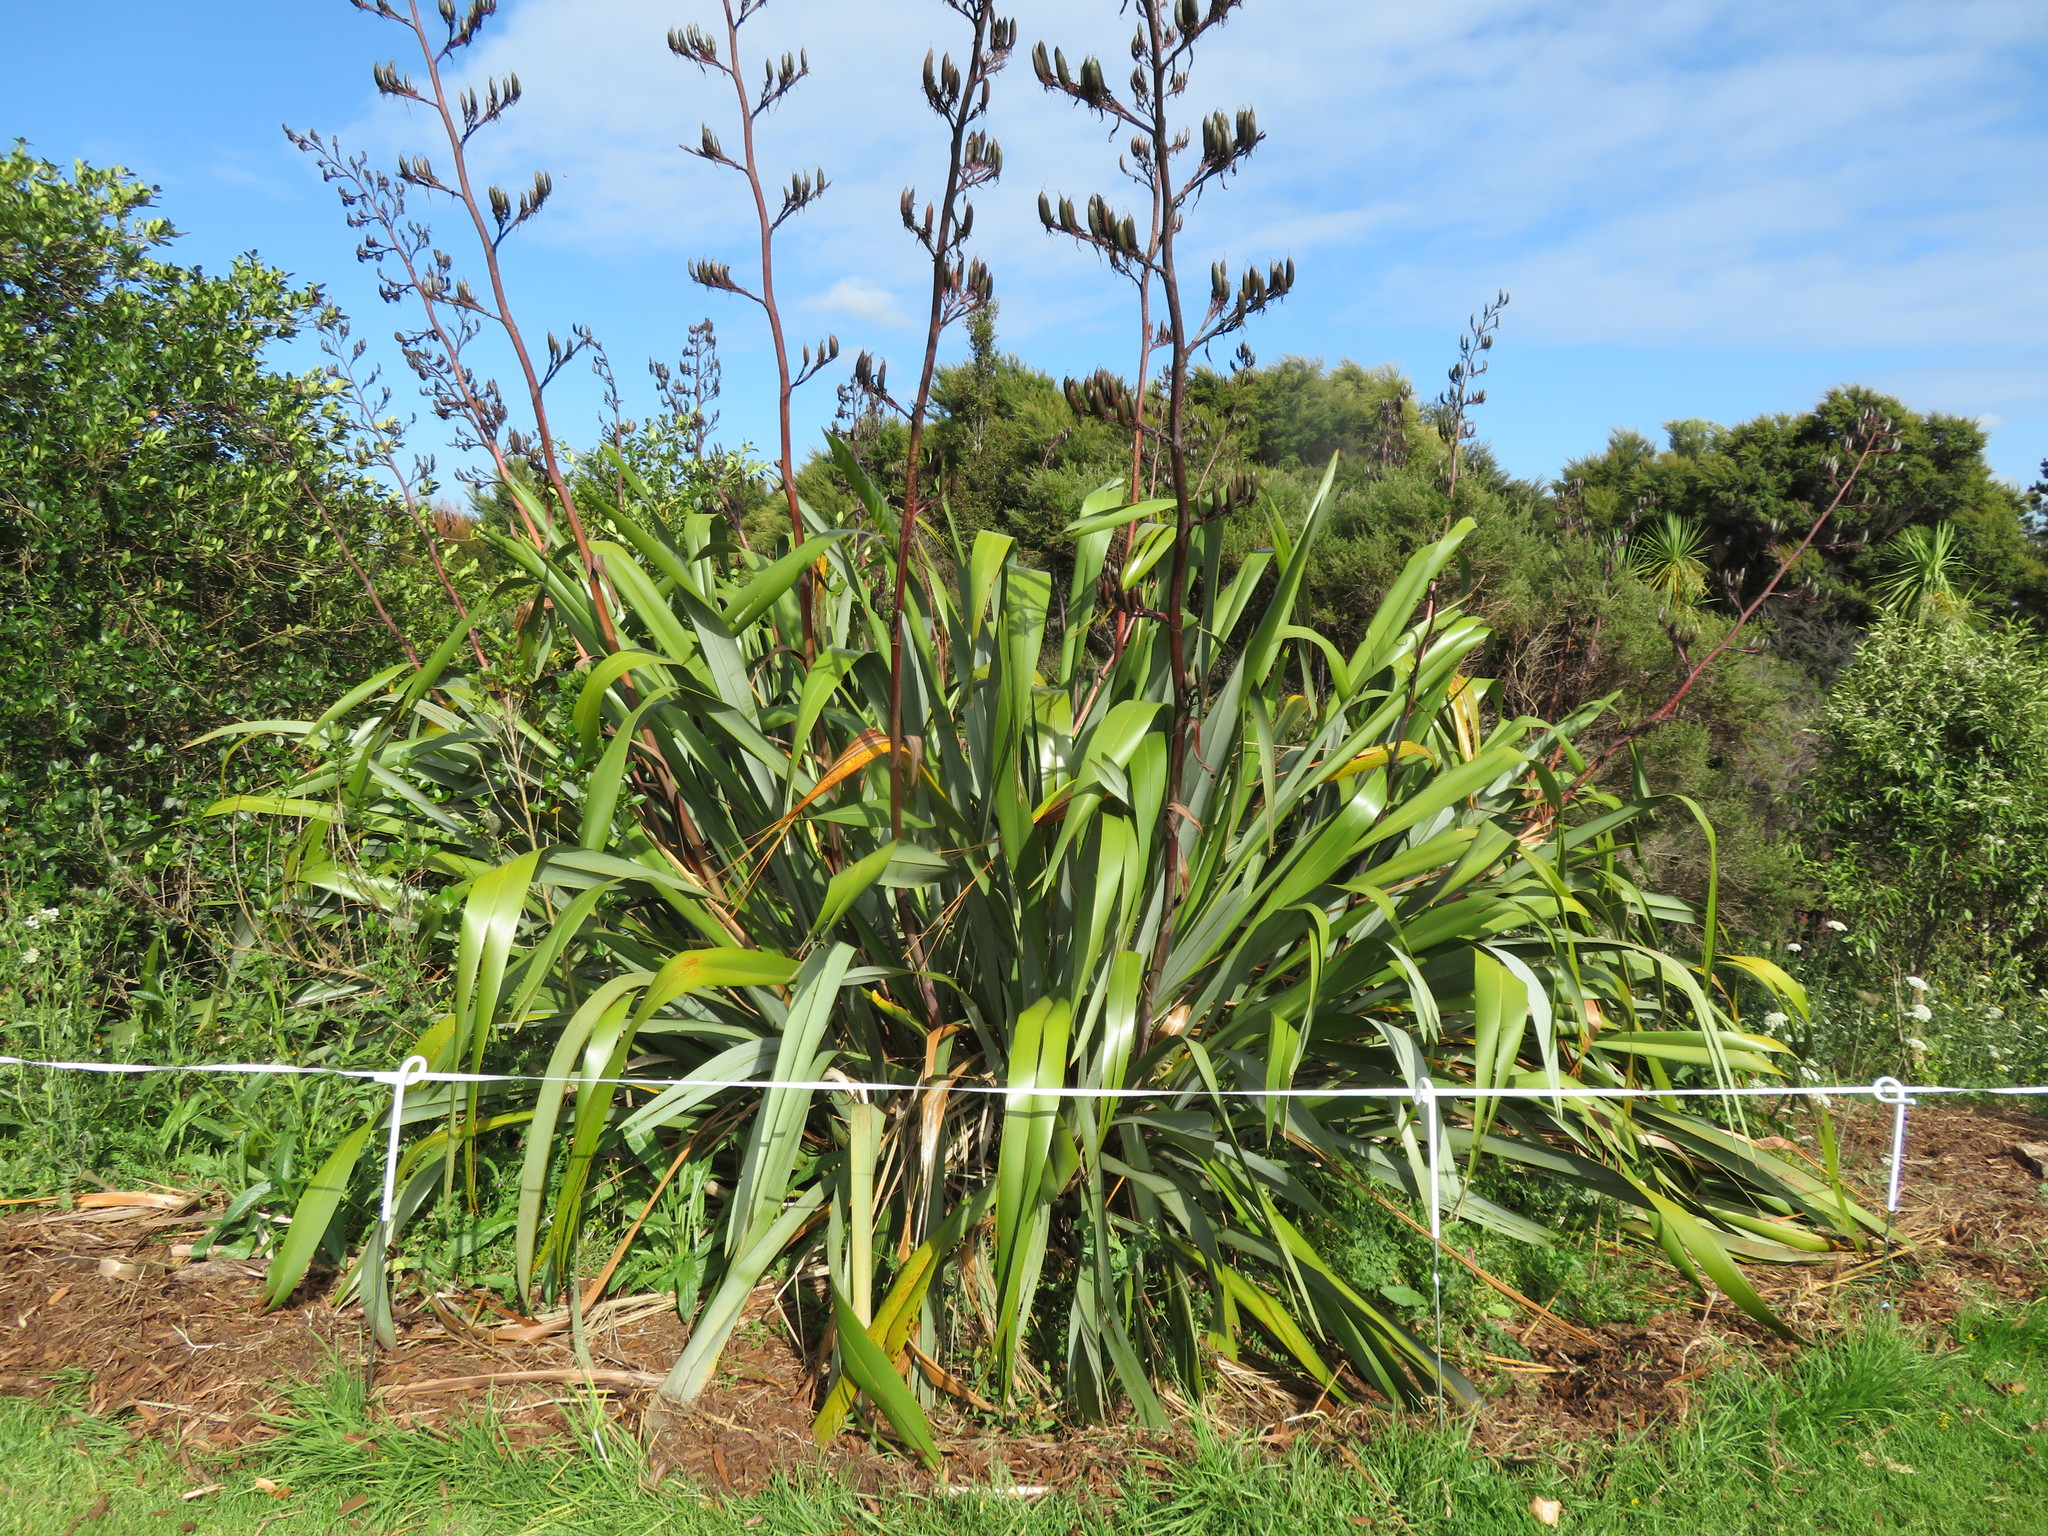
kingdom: Plantae
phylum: Tracheophyta
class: Liliopsida
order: Poales
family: Poaceae
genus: Cenchrus
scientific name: Cenchrus clandestinus
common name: Kikuyugrass
